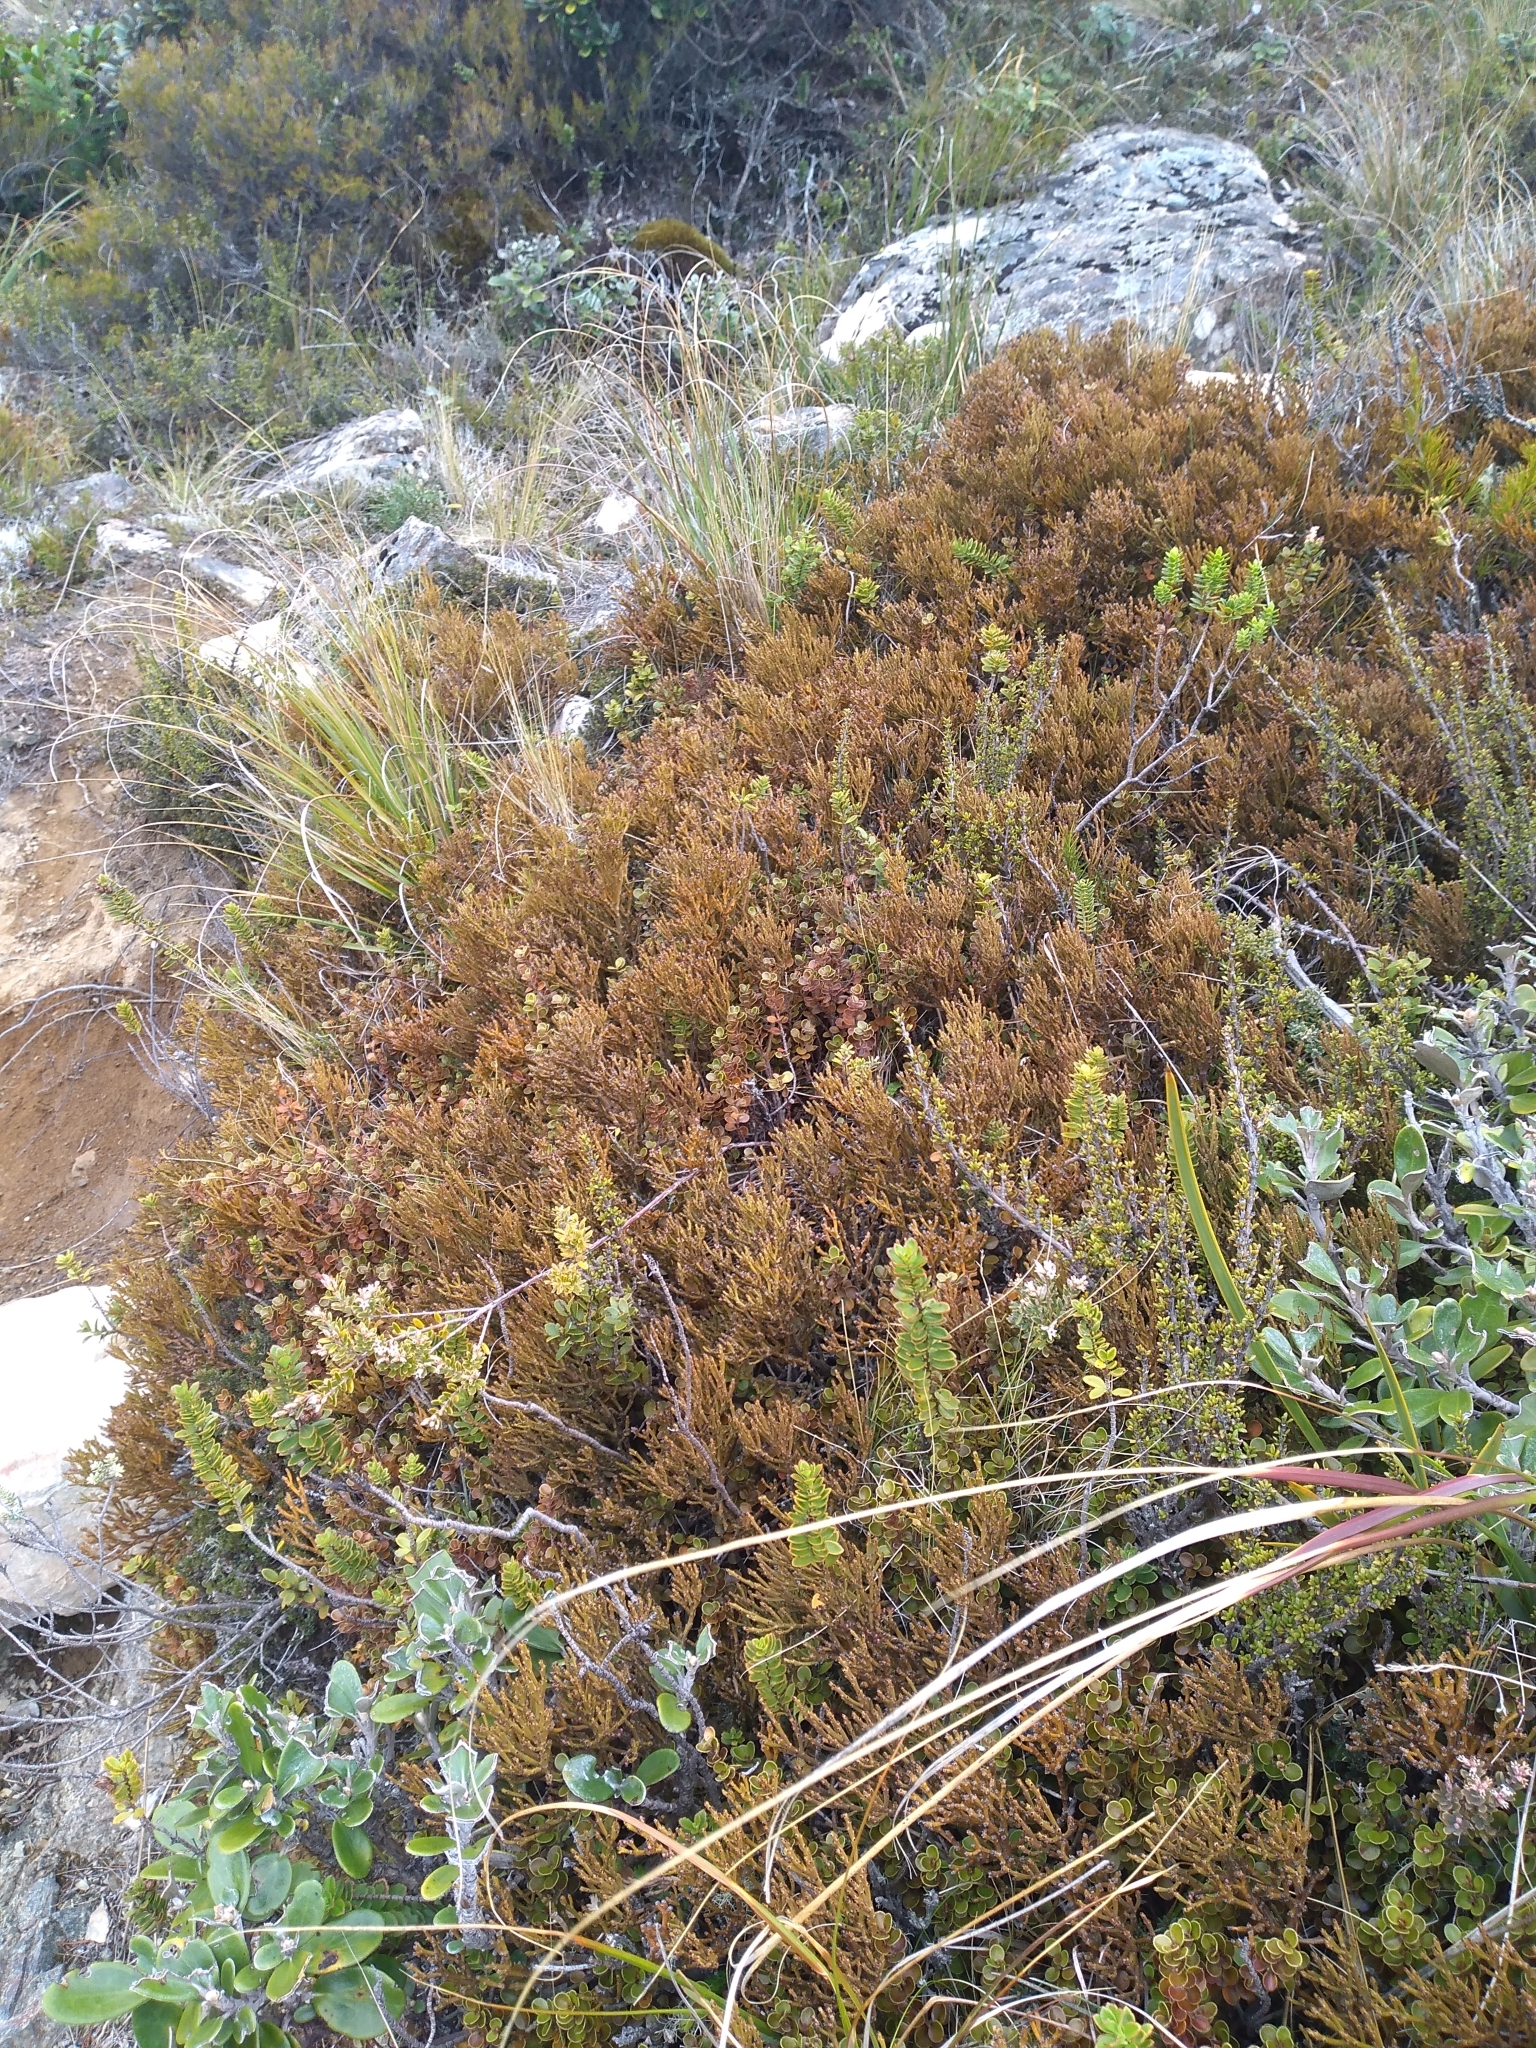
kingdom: Plantae
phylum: Tracheophyta
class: Magnoliopsida
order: Santalales
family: Santalaceae
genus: Exocarpos
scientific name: Exocarpos bidwillii
